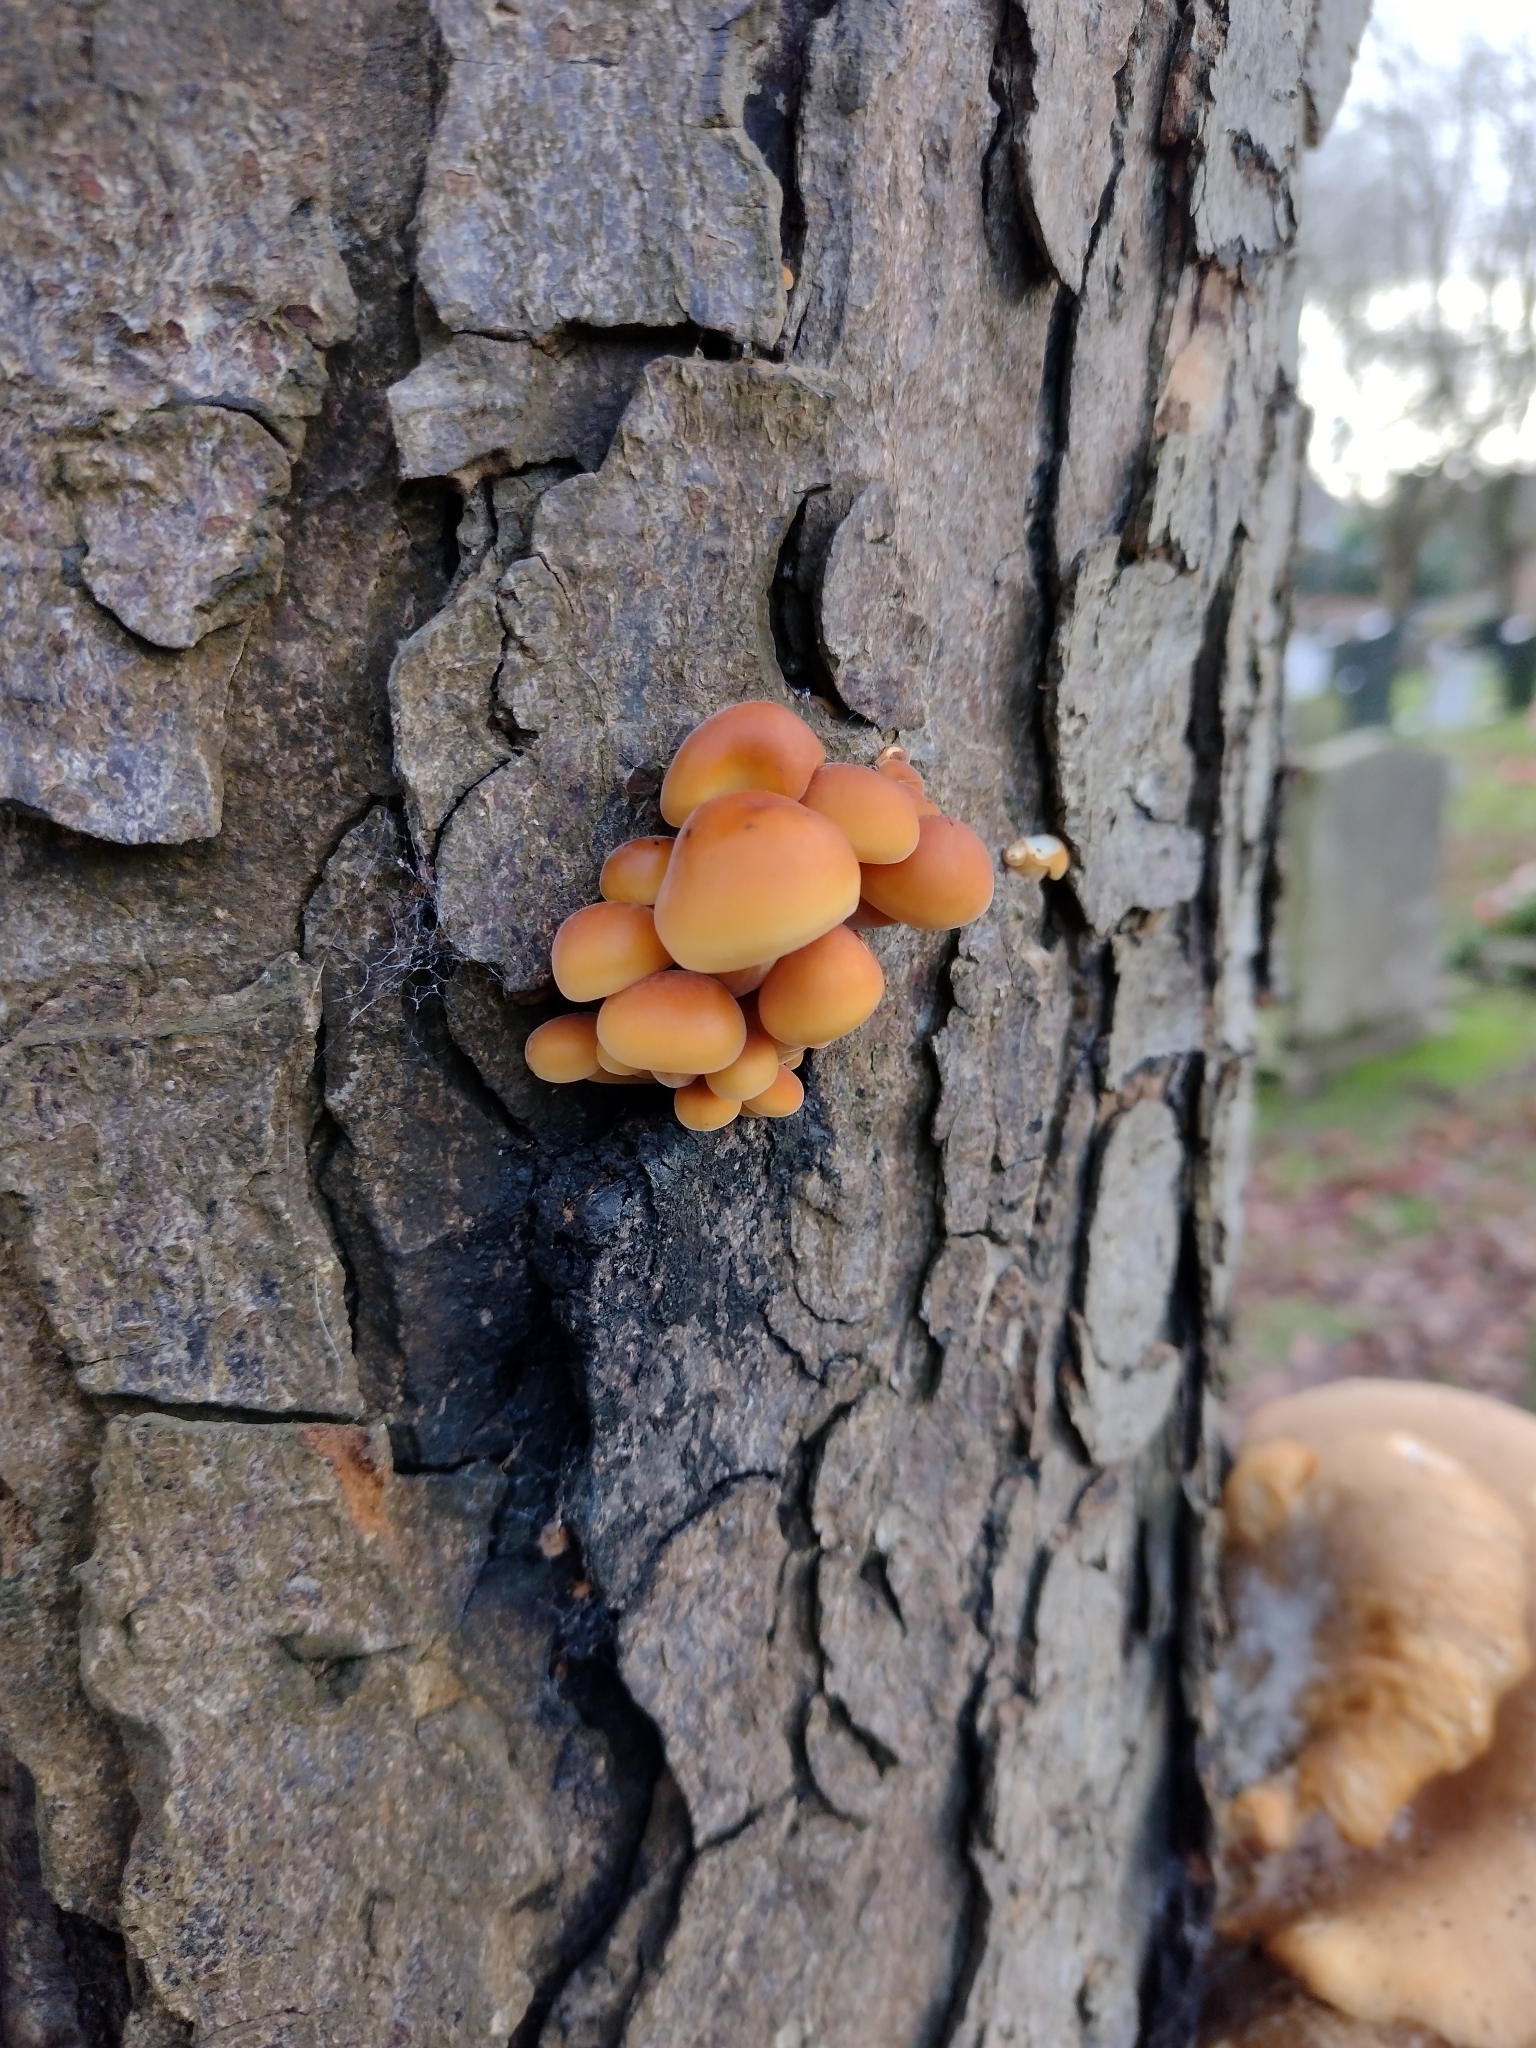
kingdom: Fungi
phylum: Basidiomycota
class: Agaricomycetes
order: Agaricales
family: Physalacriaceae
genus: Flammulina
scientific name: Flammulina
